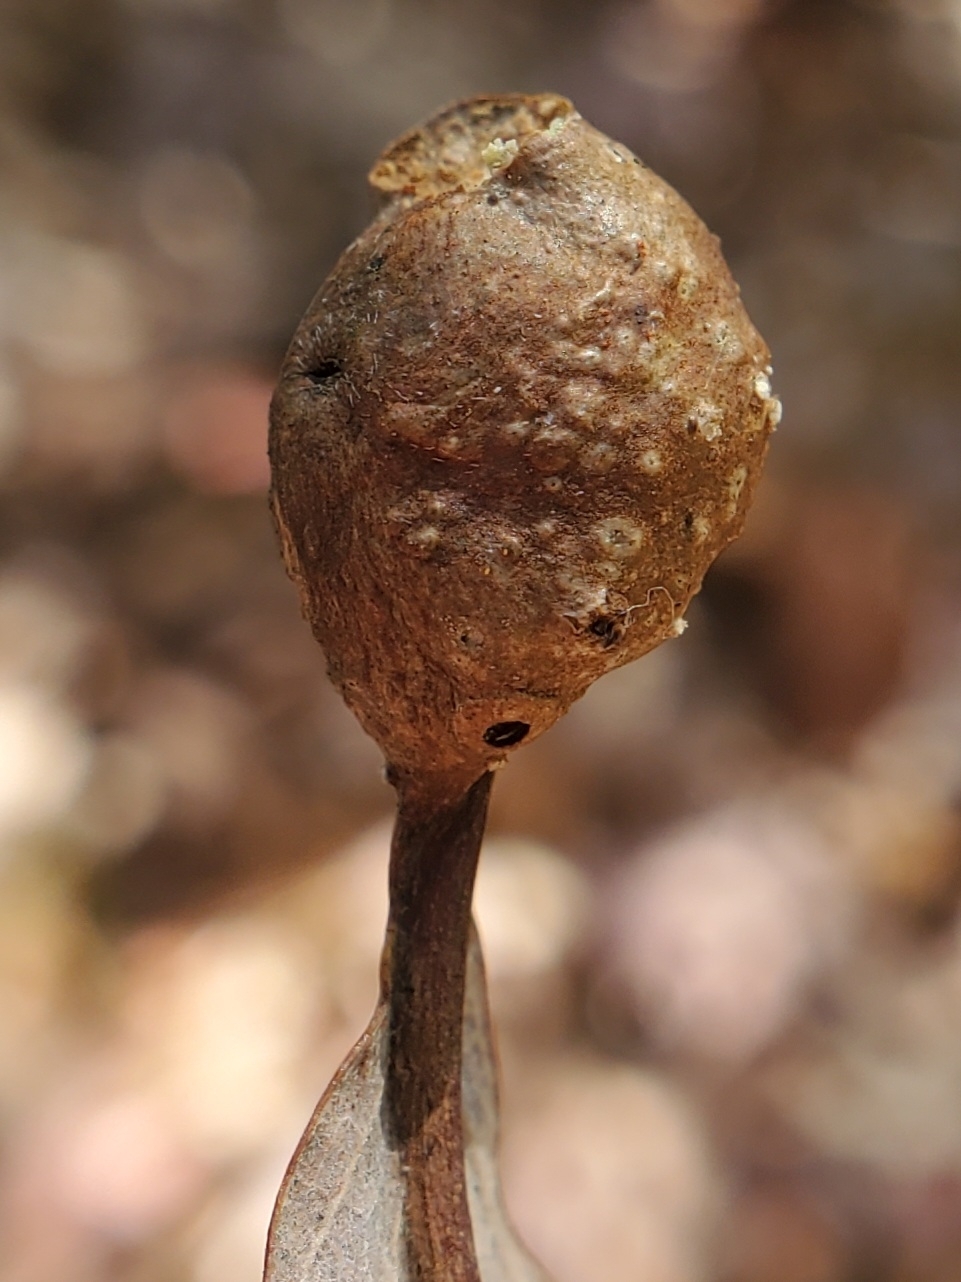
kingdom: Animalia
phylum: Arthropoda
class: Insecta
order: Hymenoptera
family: Cynipidae
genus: Andricus
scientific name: Andricus
